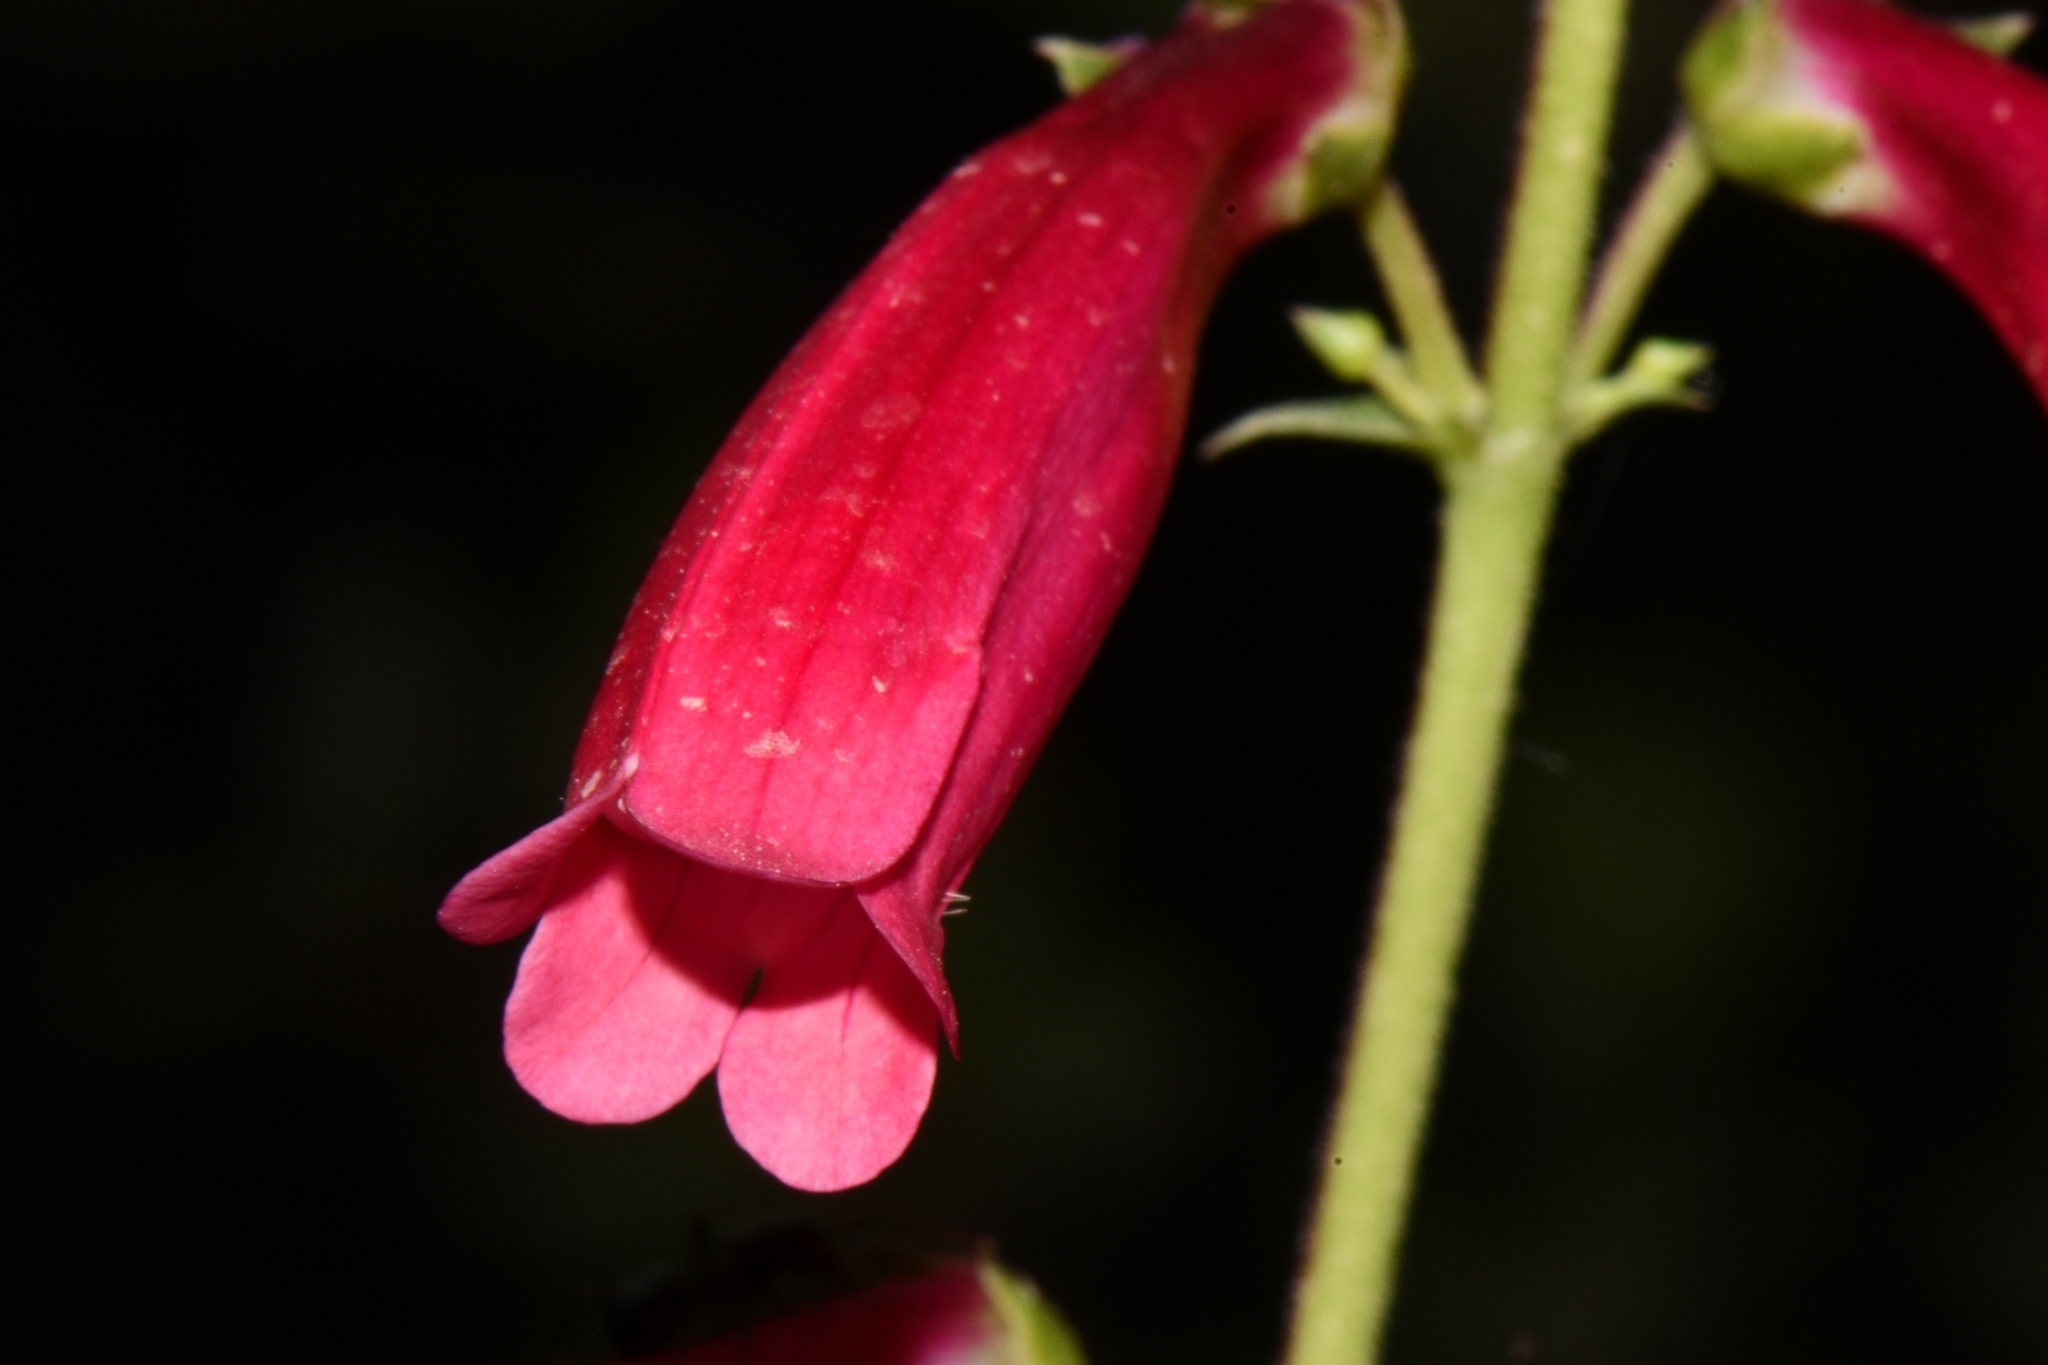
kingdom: Plantae
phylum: Tracheophyta
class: Magnoliopsida
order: Lamiales
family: Plantaginaceae
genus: Penstemon
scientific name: Penstemon eatonii
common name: Eaton's penstemon
